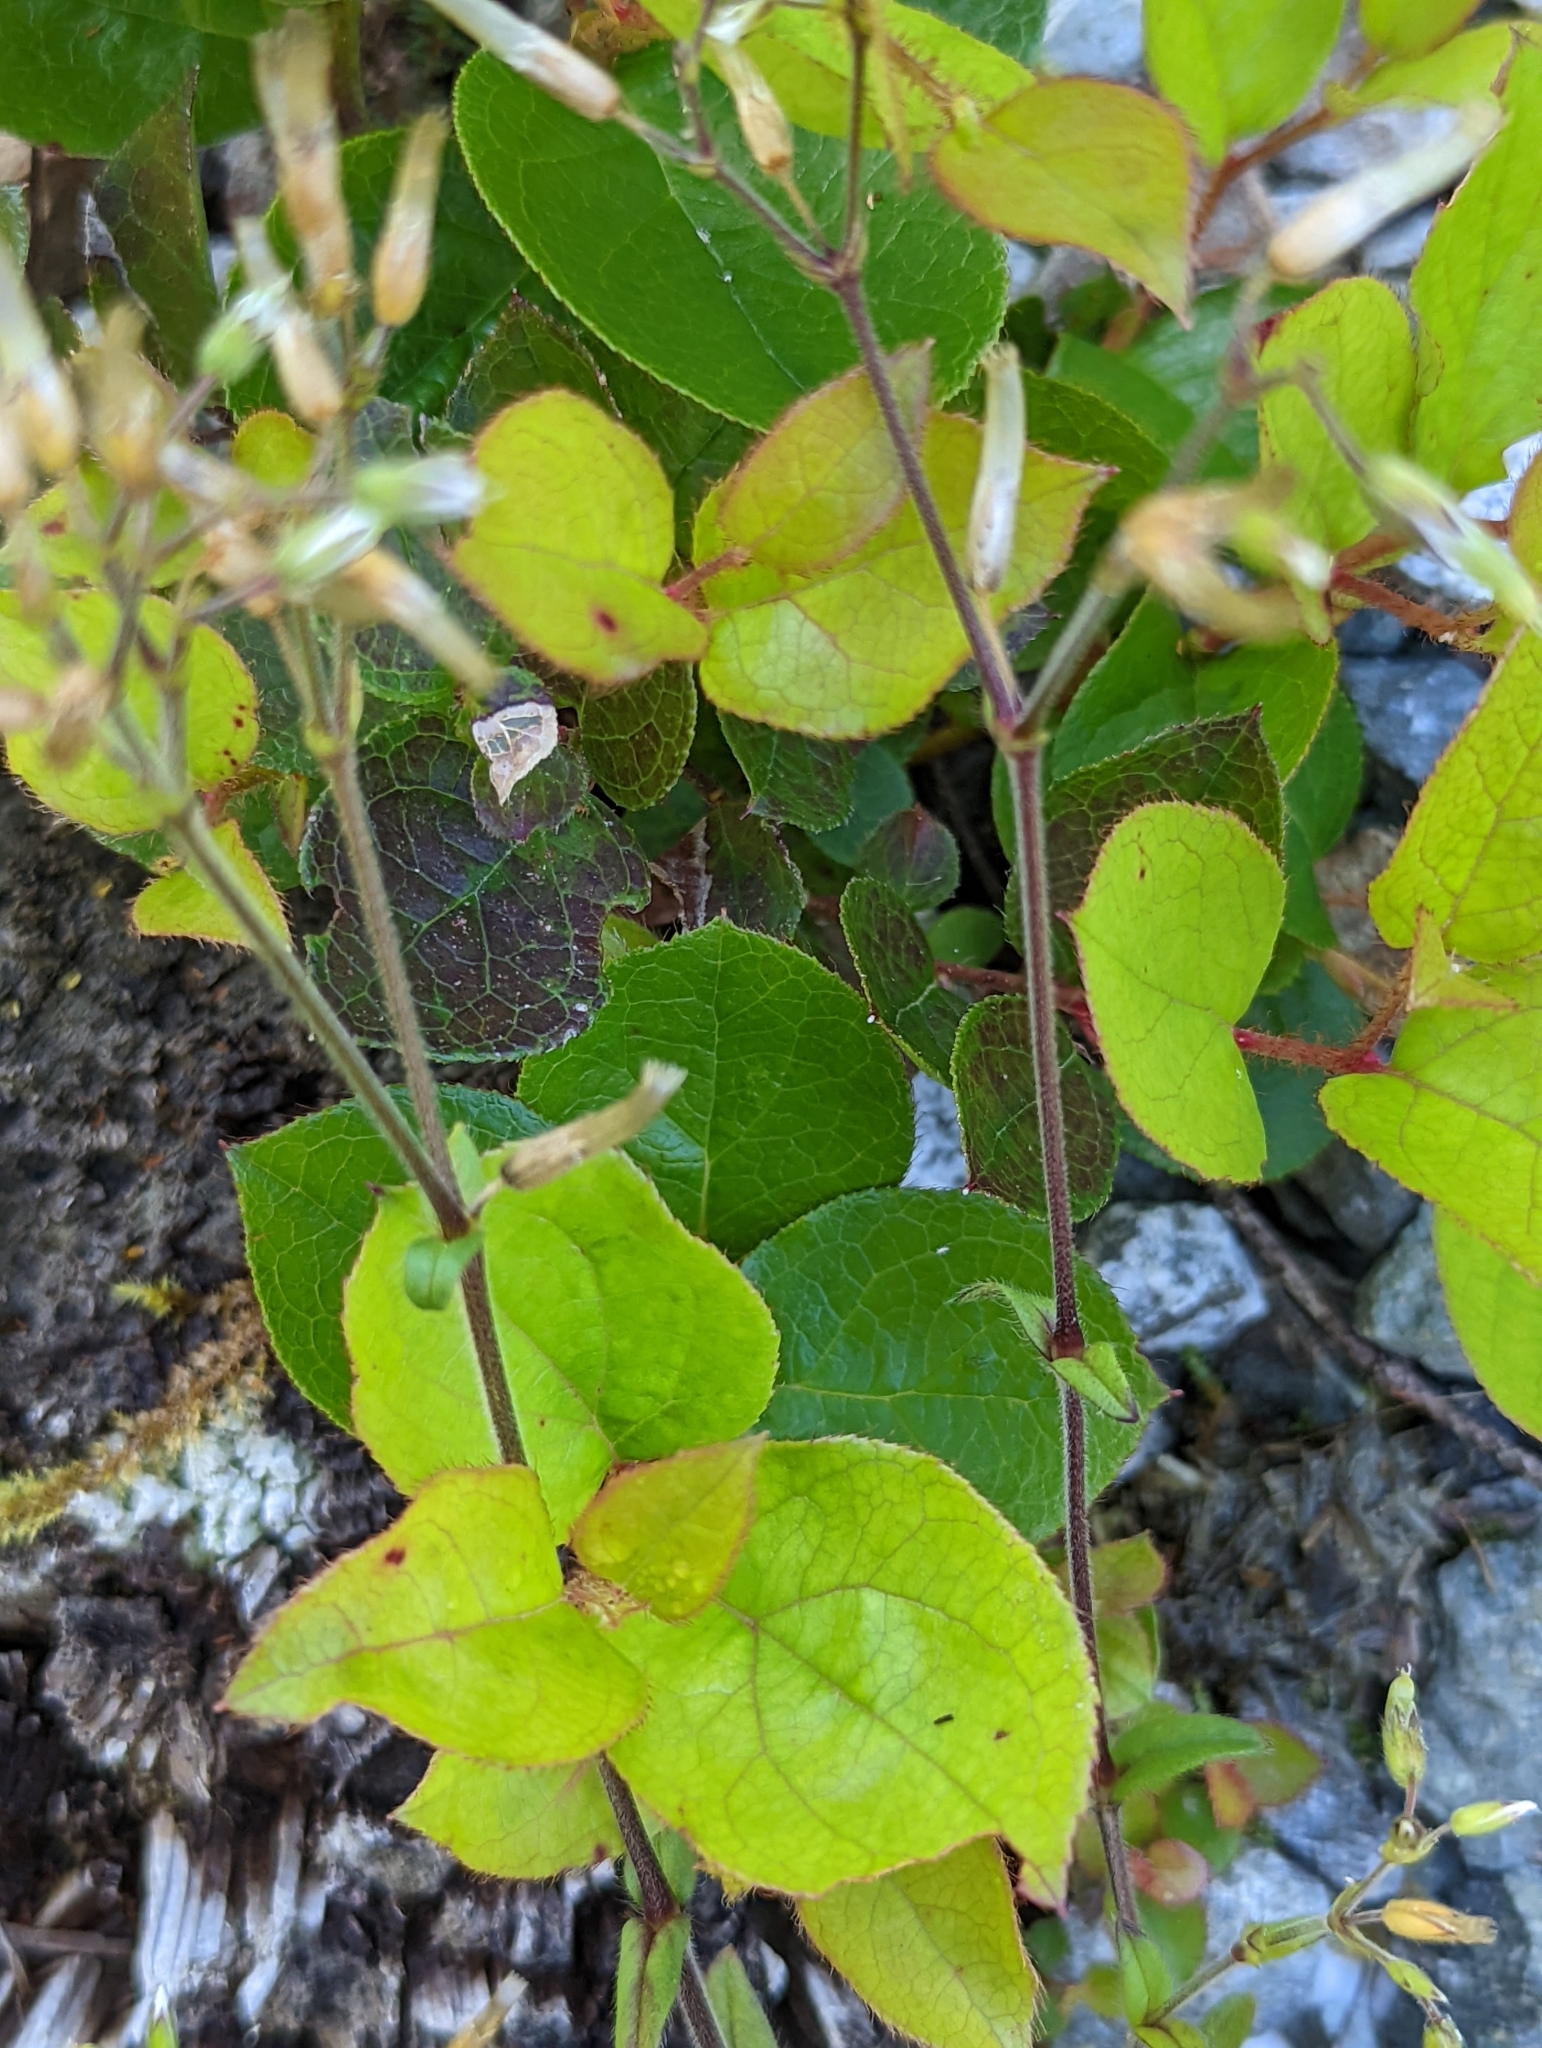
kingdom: Plantae
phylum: Tracheophyta
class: Magnoliopsida
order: Ericales
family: Ericaceae
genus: Gaultheria
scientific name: Gaultheria shallon
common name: Shallon
